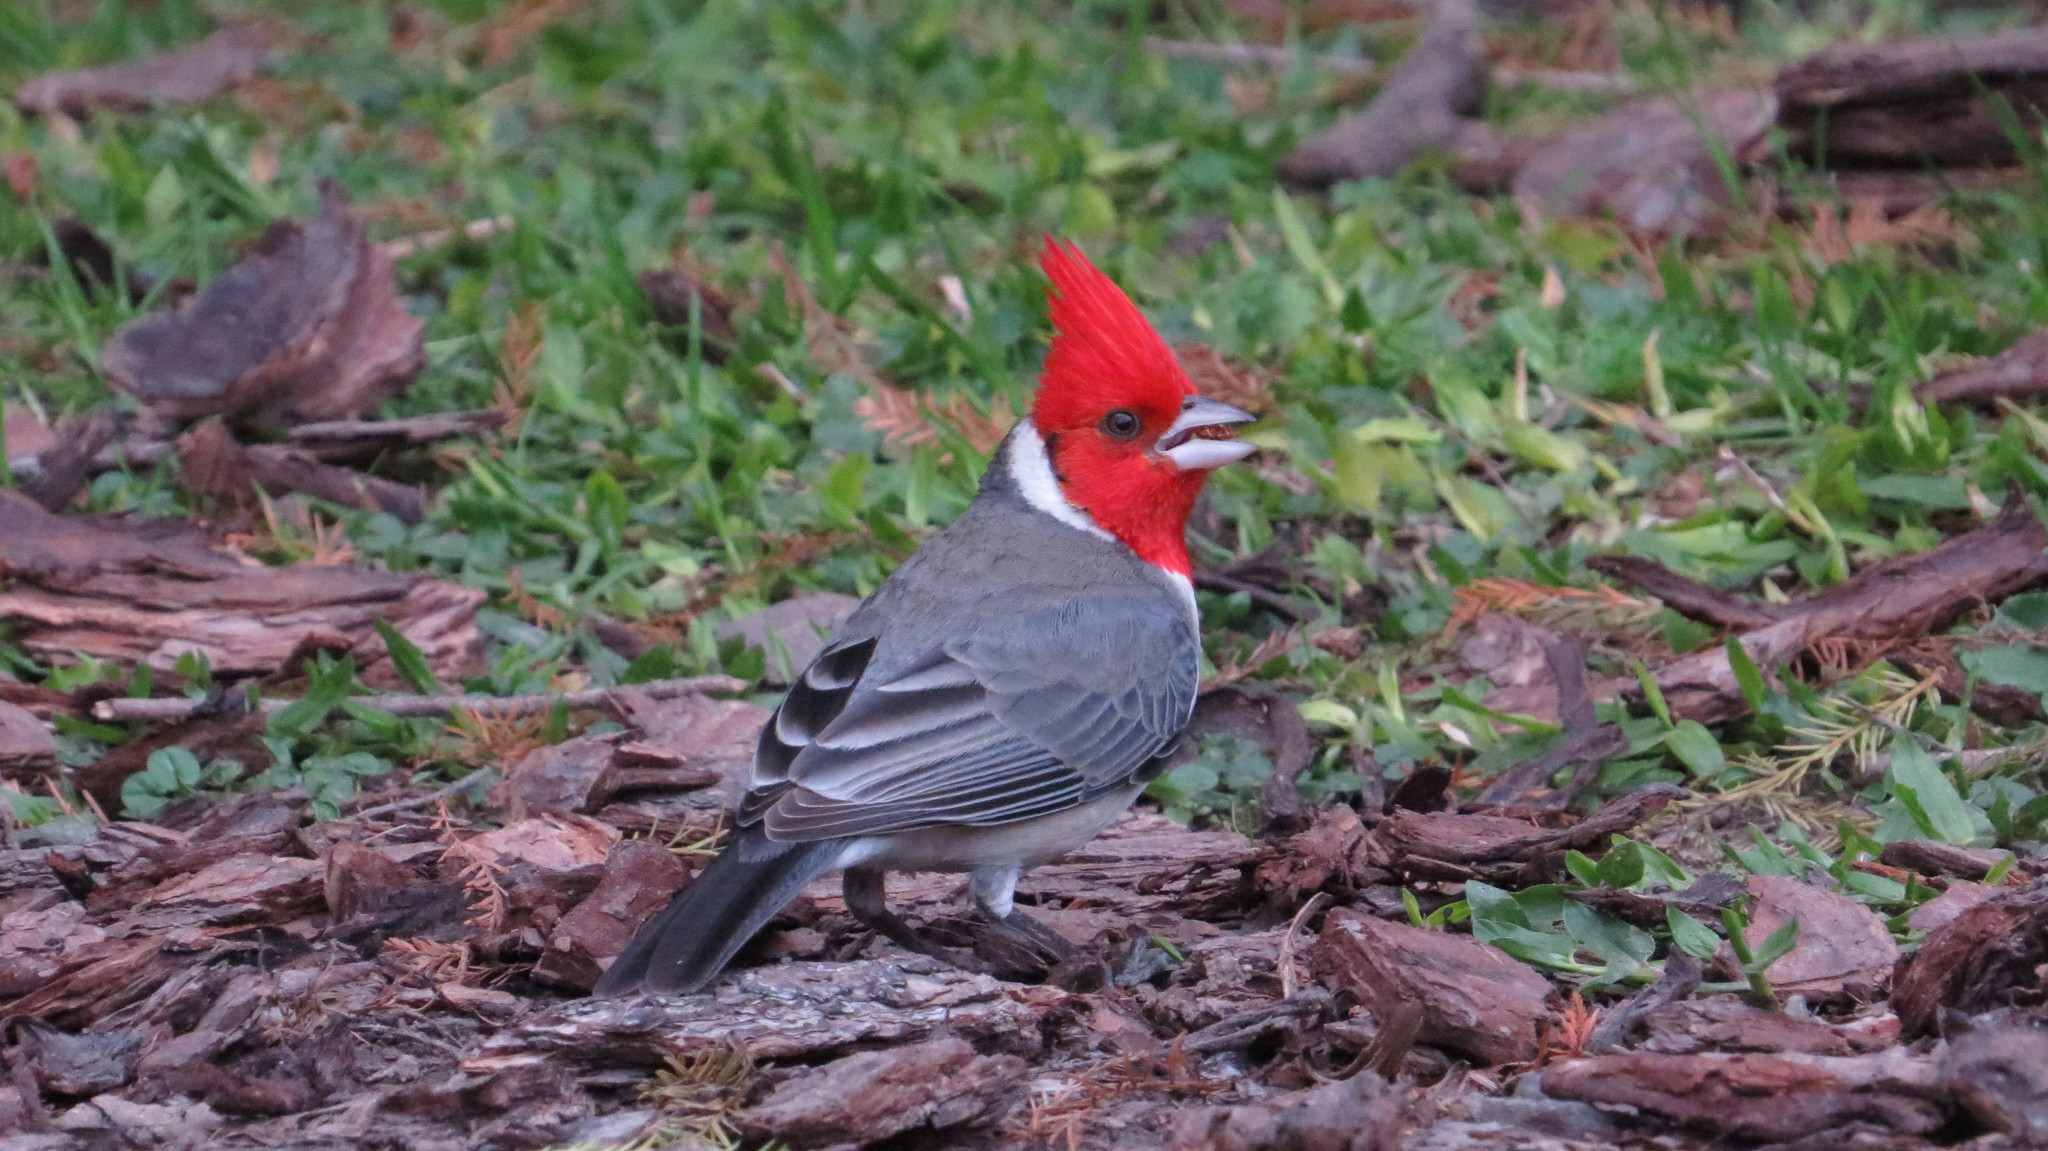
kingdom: Animalia
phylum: Chordata
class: Aves
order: Passeriformes
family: Thraupidae
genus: Paroaria
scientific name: Paroaria coronata
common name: Red-crested cardinal
